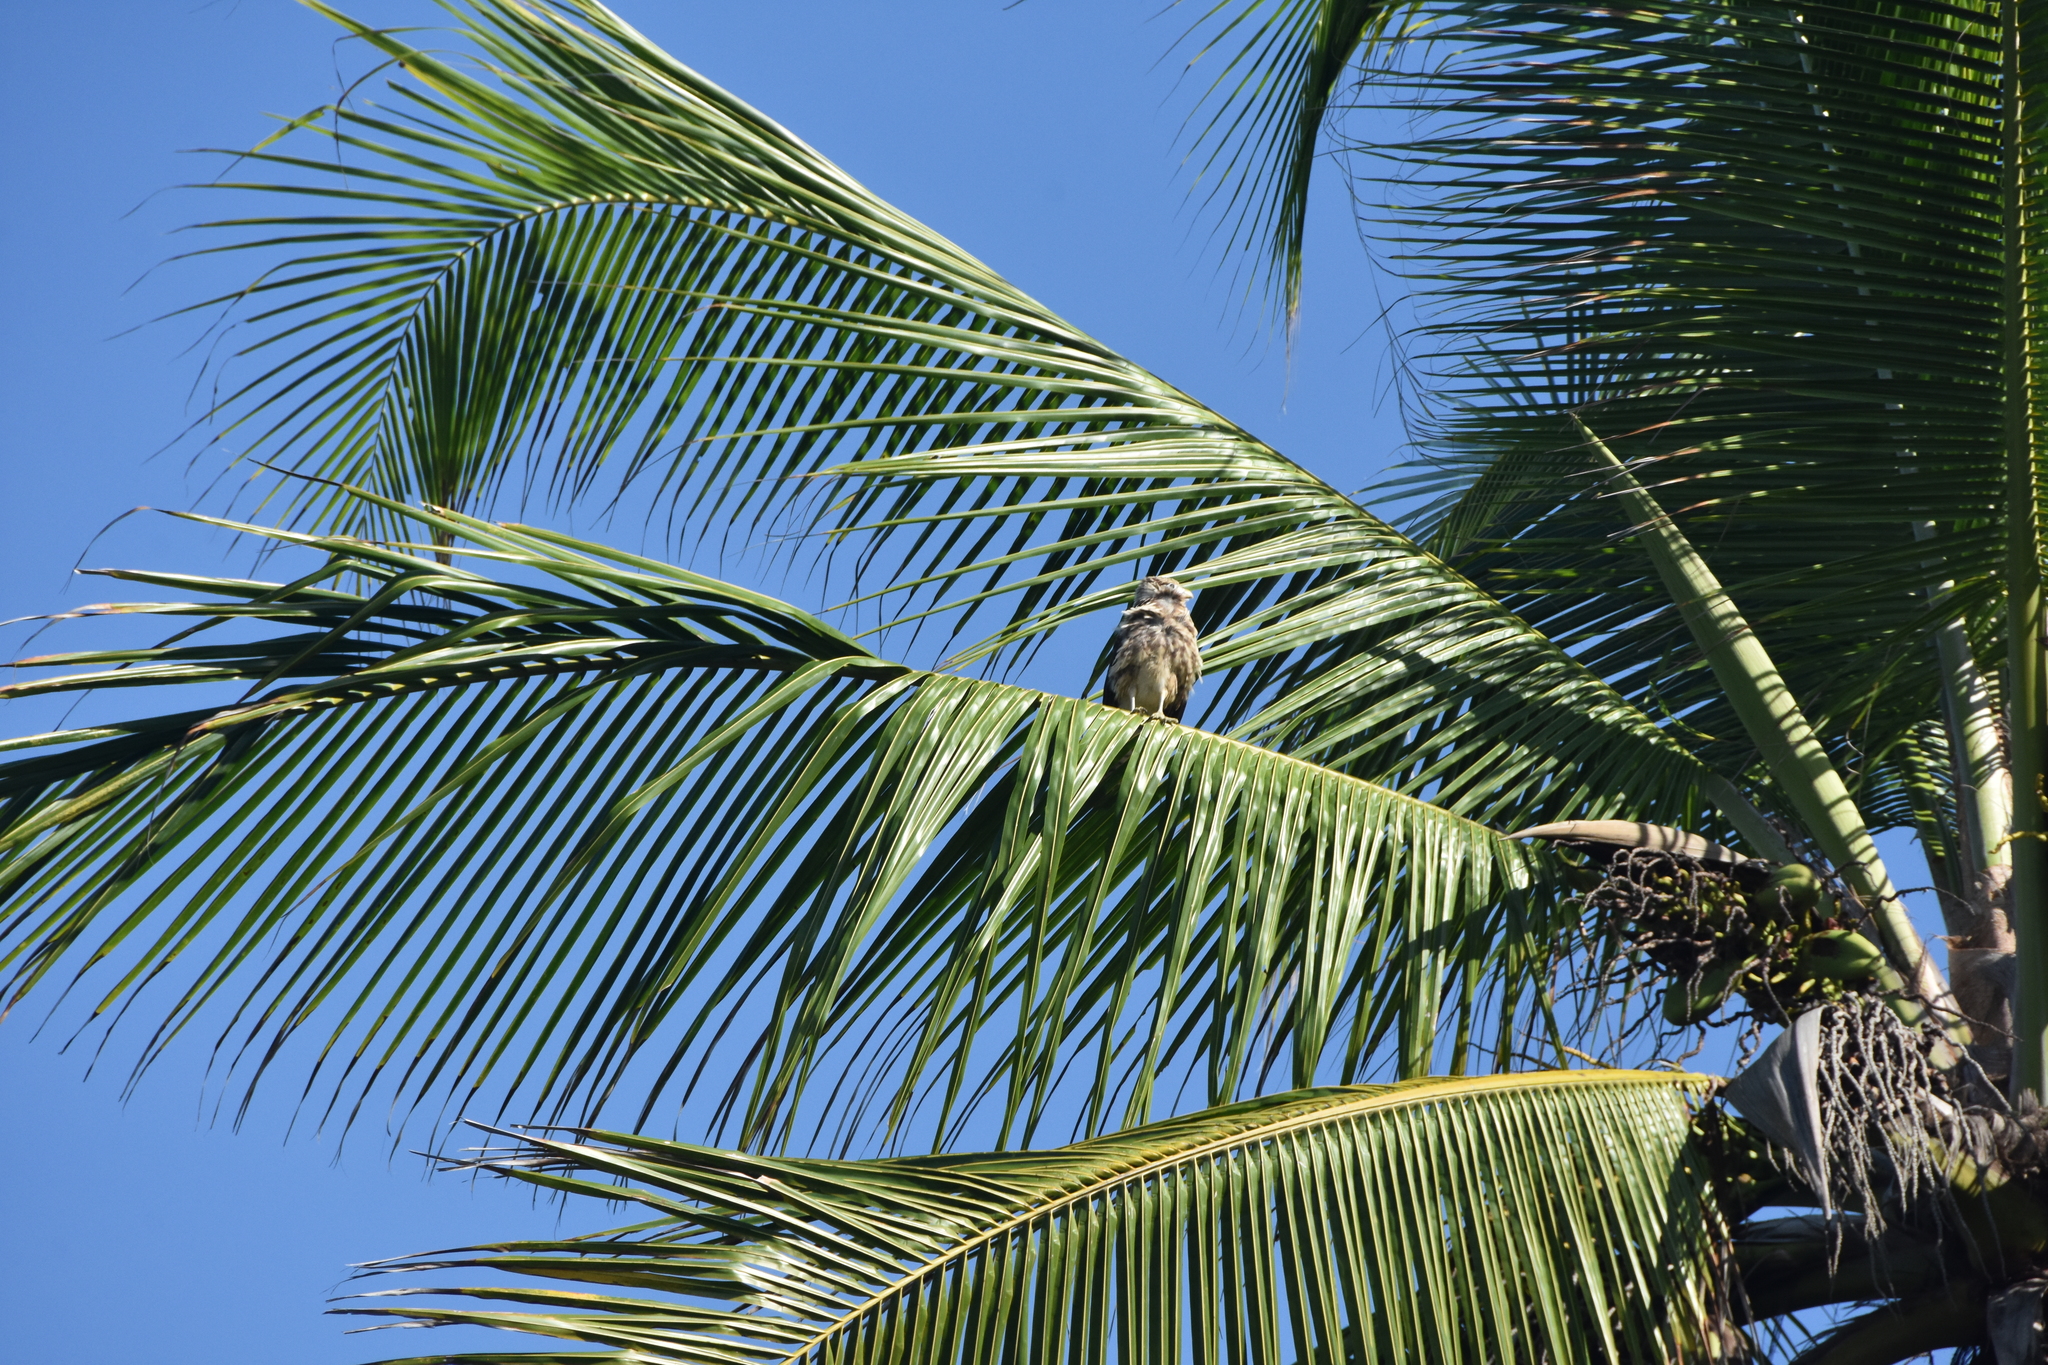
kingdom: Animalia
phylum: Chordata
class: Aves
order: Falconiformes
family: Falconidae
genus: Daptrius
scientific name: Daptrius
